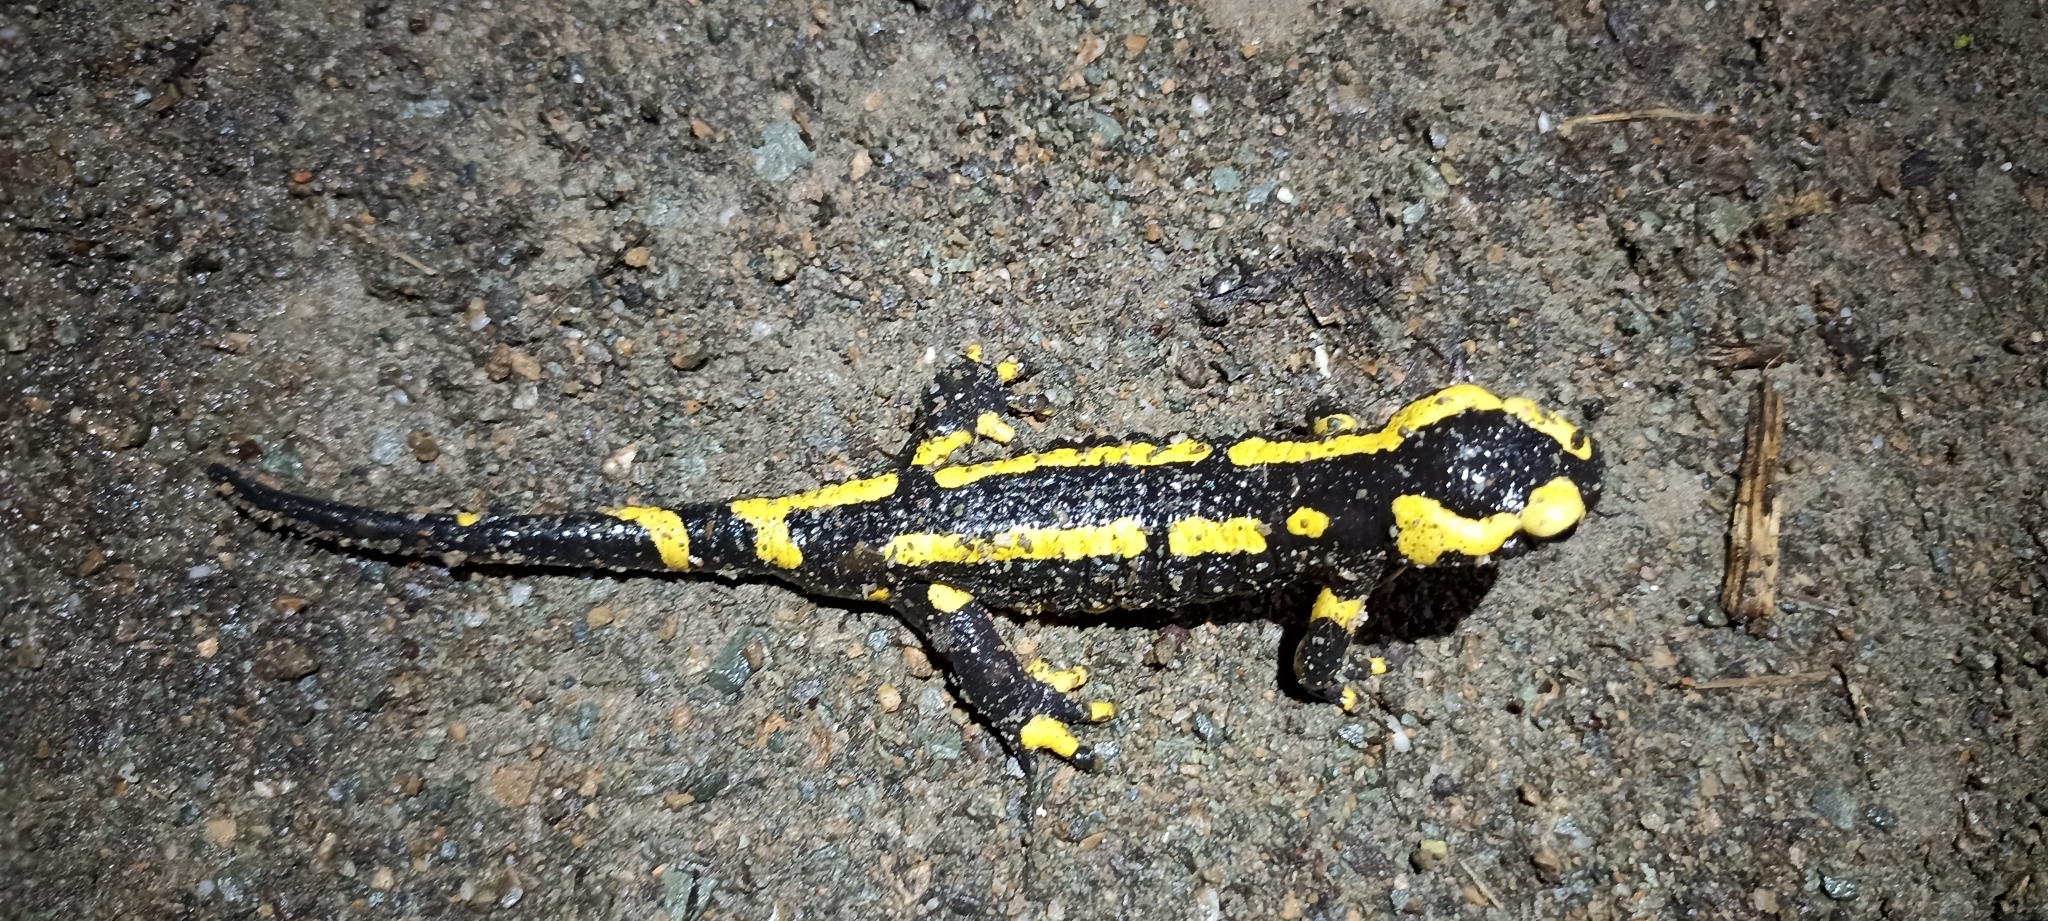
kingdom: Animalia
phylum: Chordata
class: Amphibia
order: Caudata
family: Salamandridae
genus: Salamandra
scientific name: Salamandra salamandra
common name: Fire salamander
